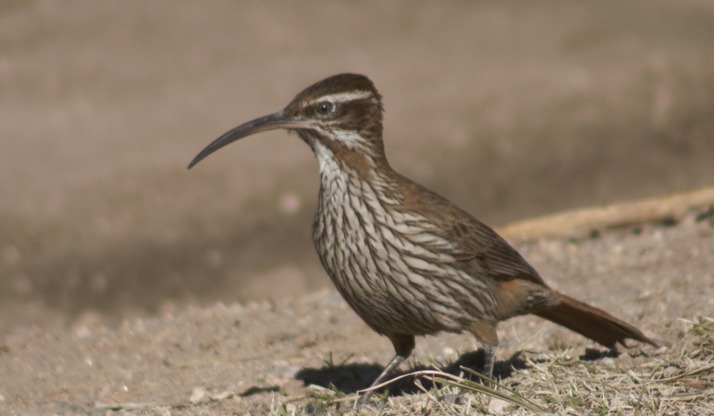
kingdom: Animalia
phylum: Chordata
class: Aves
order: Passeriformes
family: Furnariidae
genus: Drymornis
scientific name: Drymornis bridgesii
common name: Scimitar-billed woodcreeper
